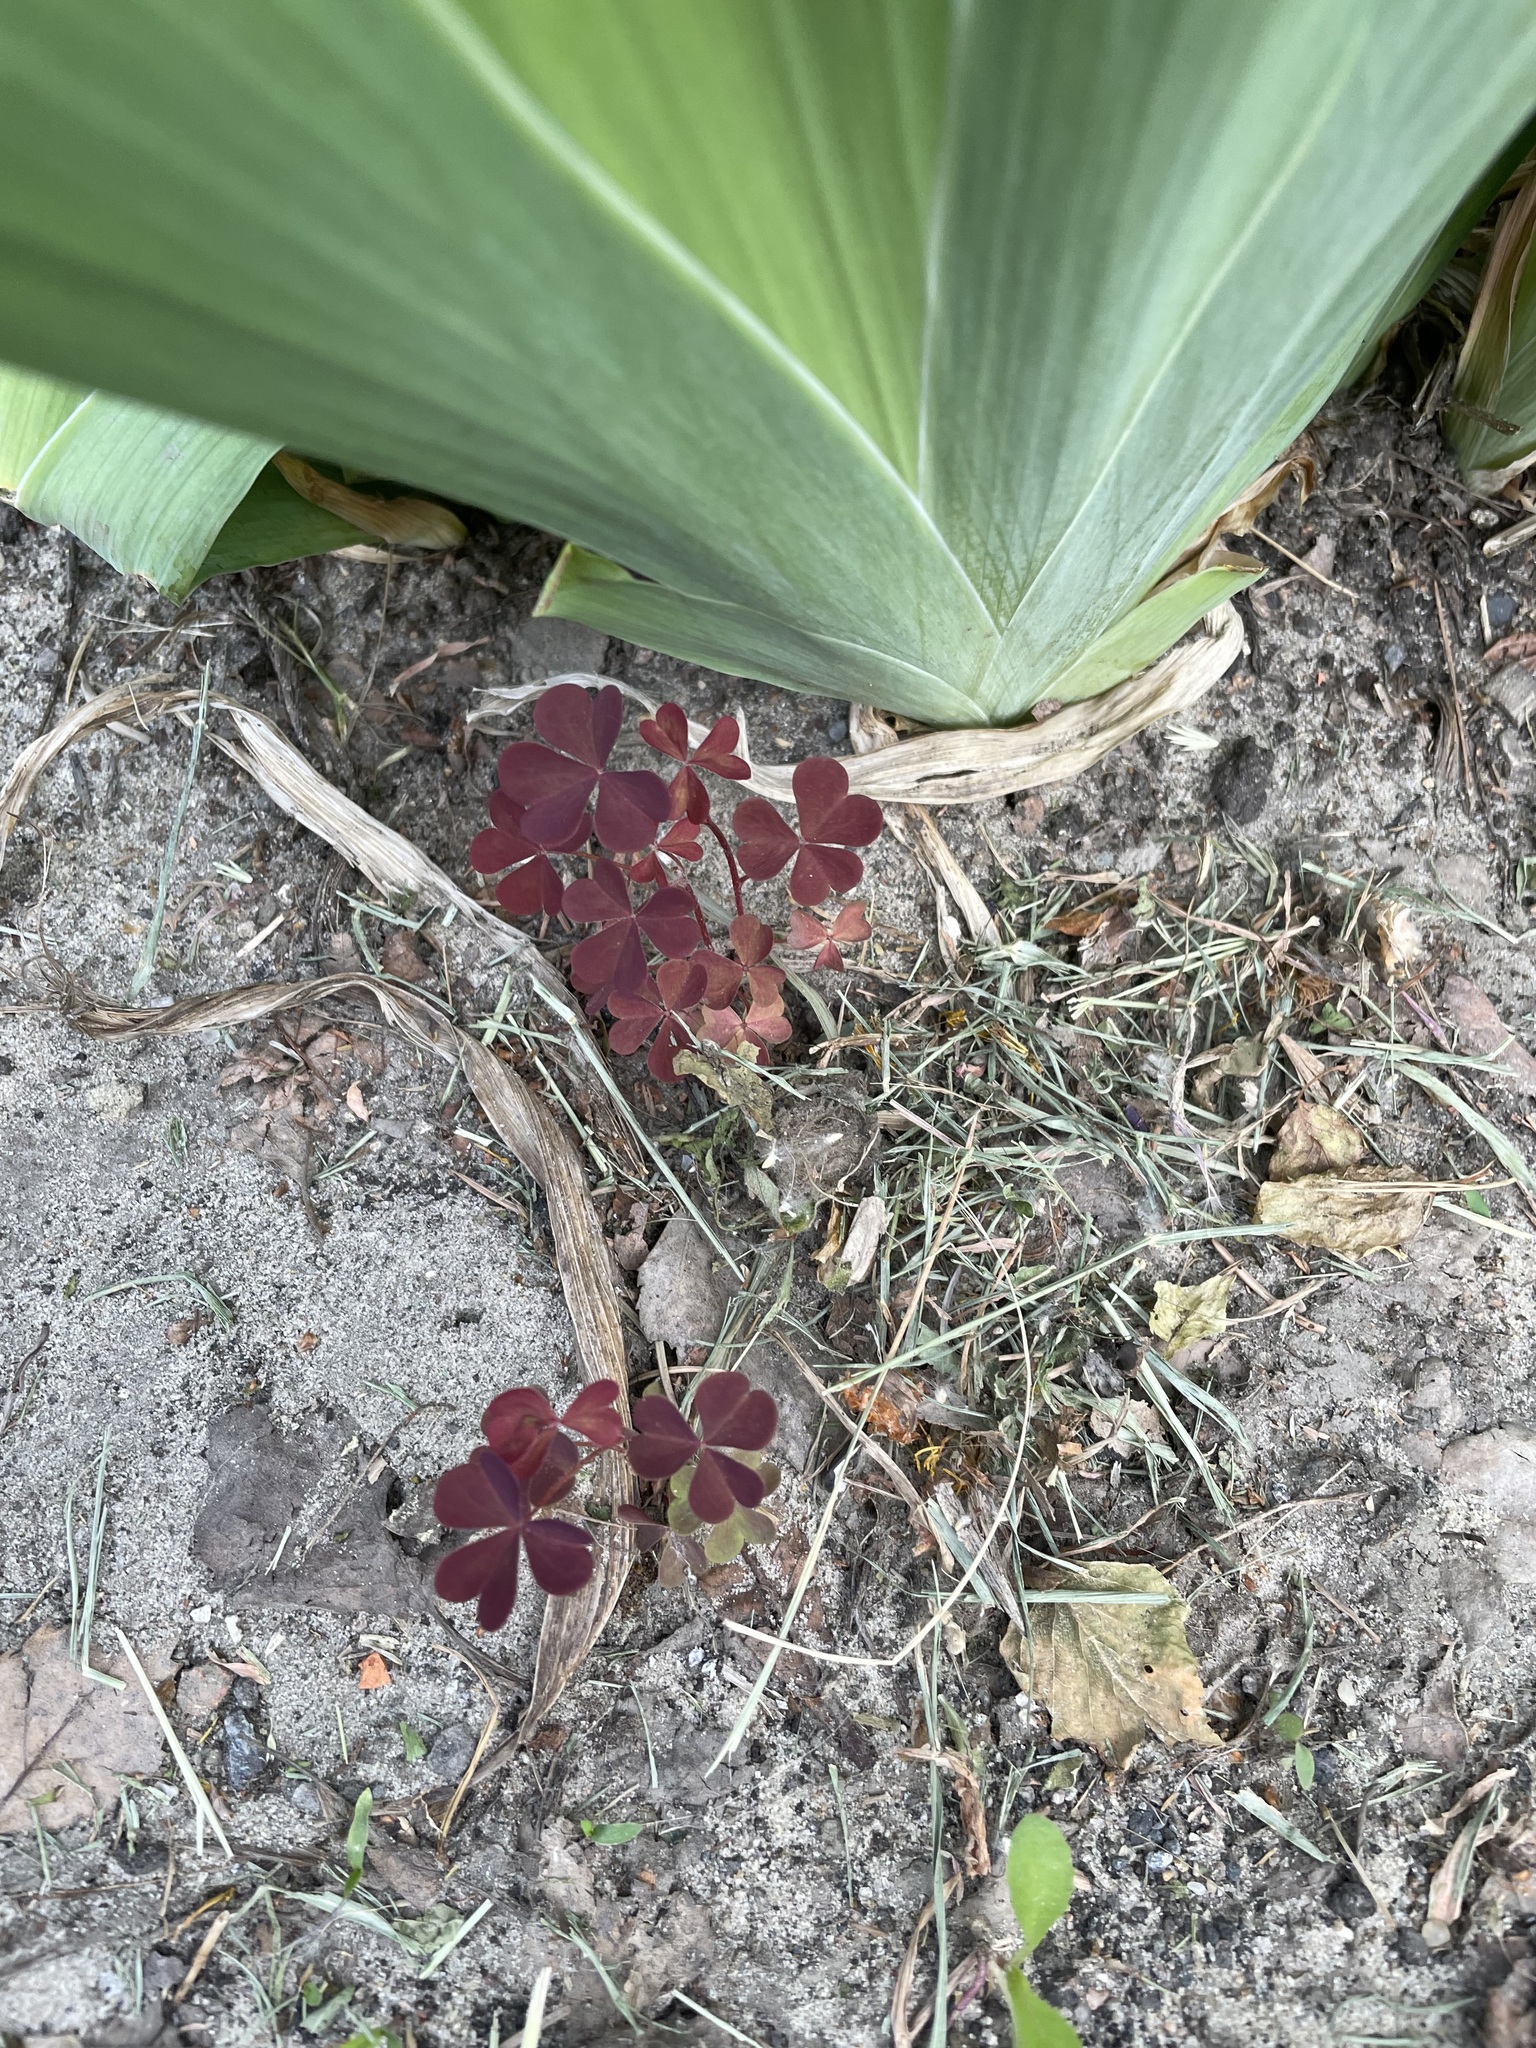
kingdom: Plantae
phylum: Tracheophyta
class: Magnoliopsida
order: Oxalidales
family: Oxalidaceae
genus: Oxalis
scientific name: Oxalis stricta
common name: Upright yellow-sorrel
